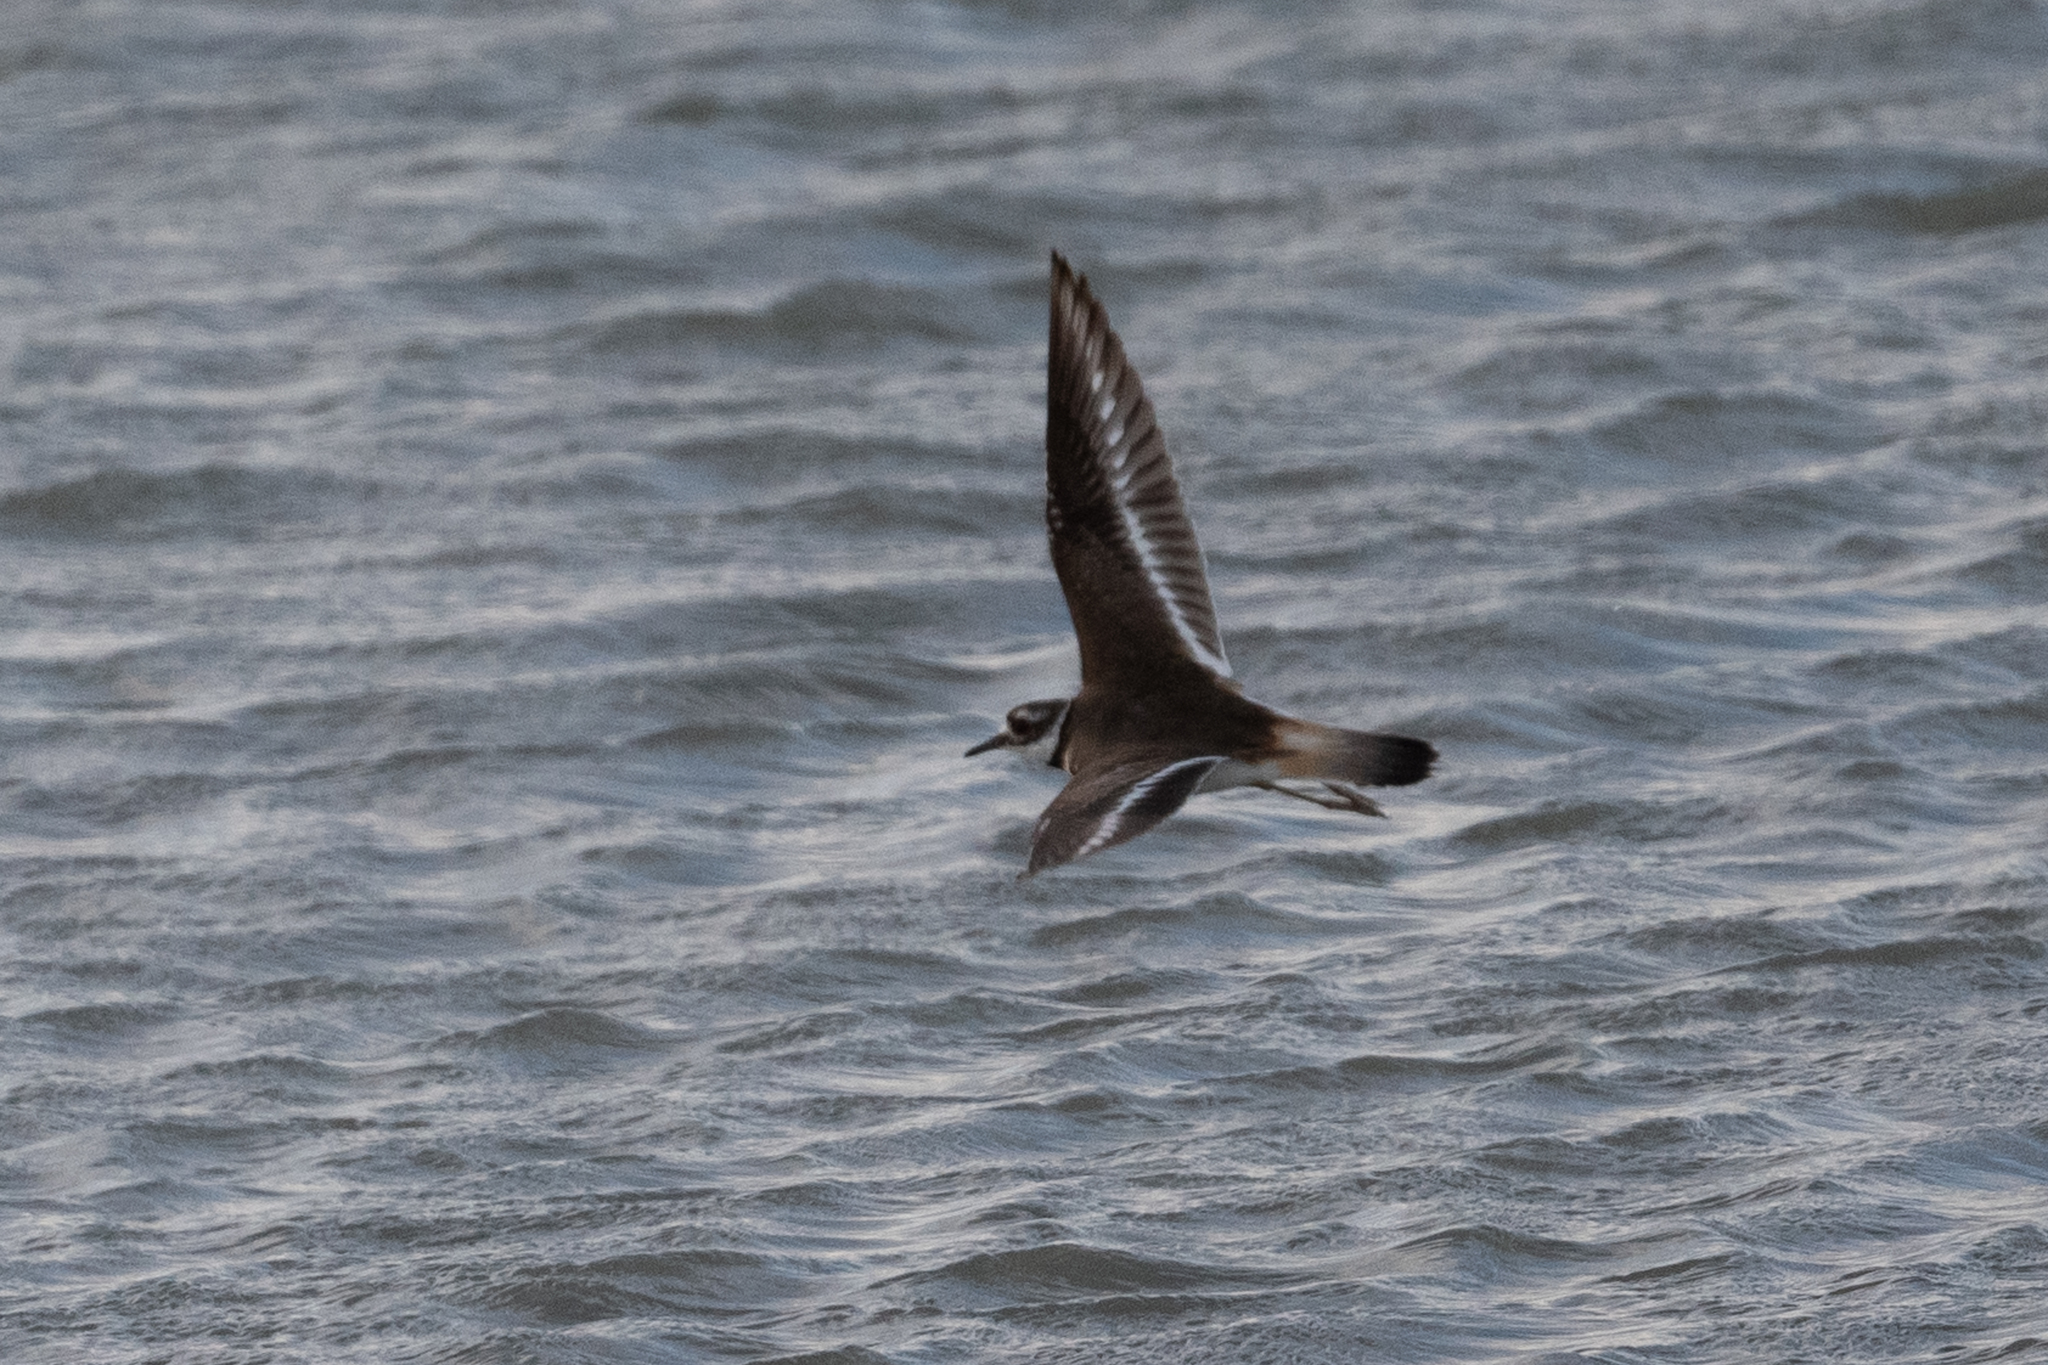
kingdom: Animalia
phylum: Chordata
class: Aves
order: Charadriiformes
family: Charadriidae
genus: Charadrius
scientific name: Charadrius vociferus
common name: Killdeer
